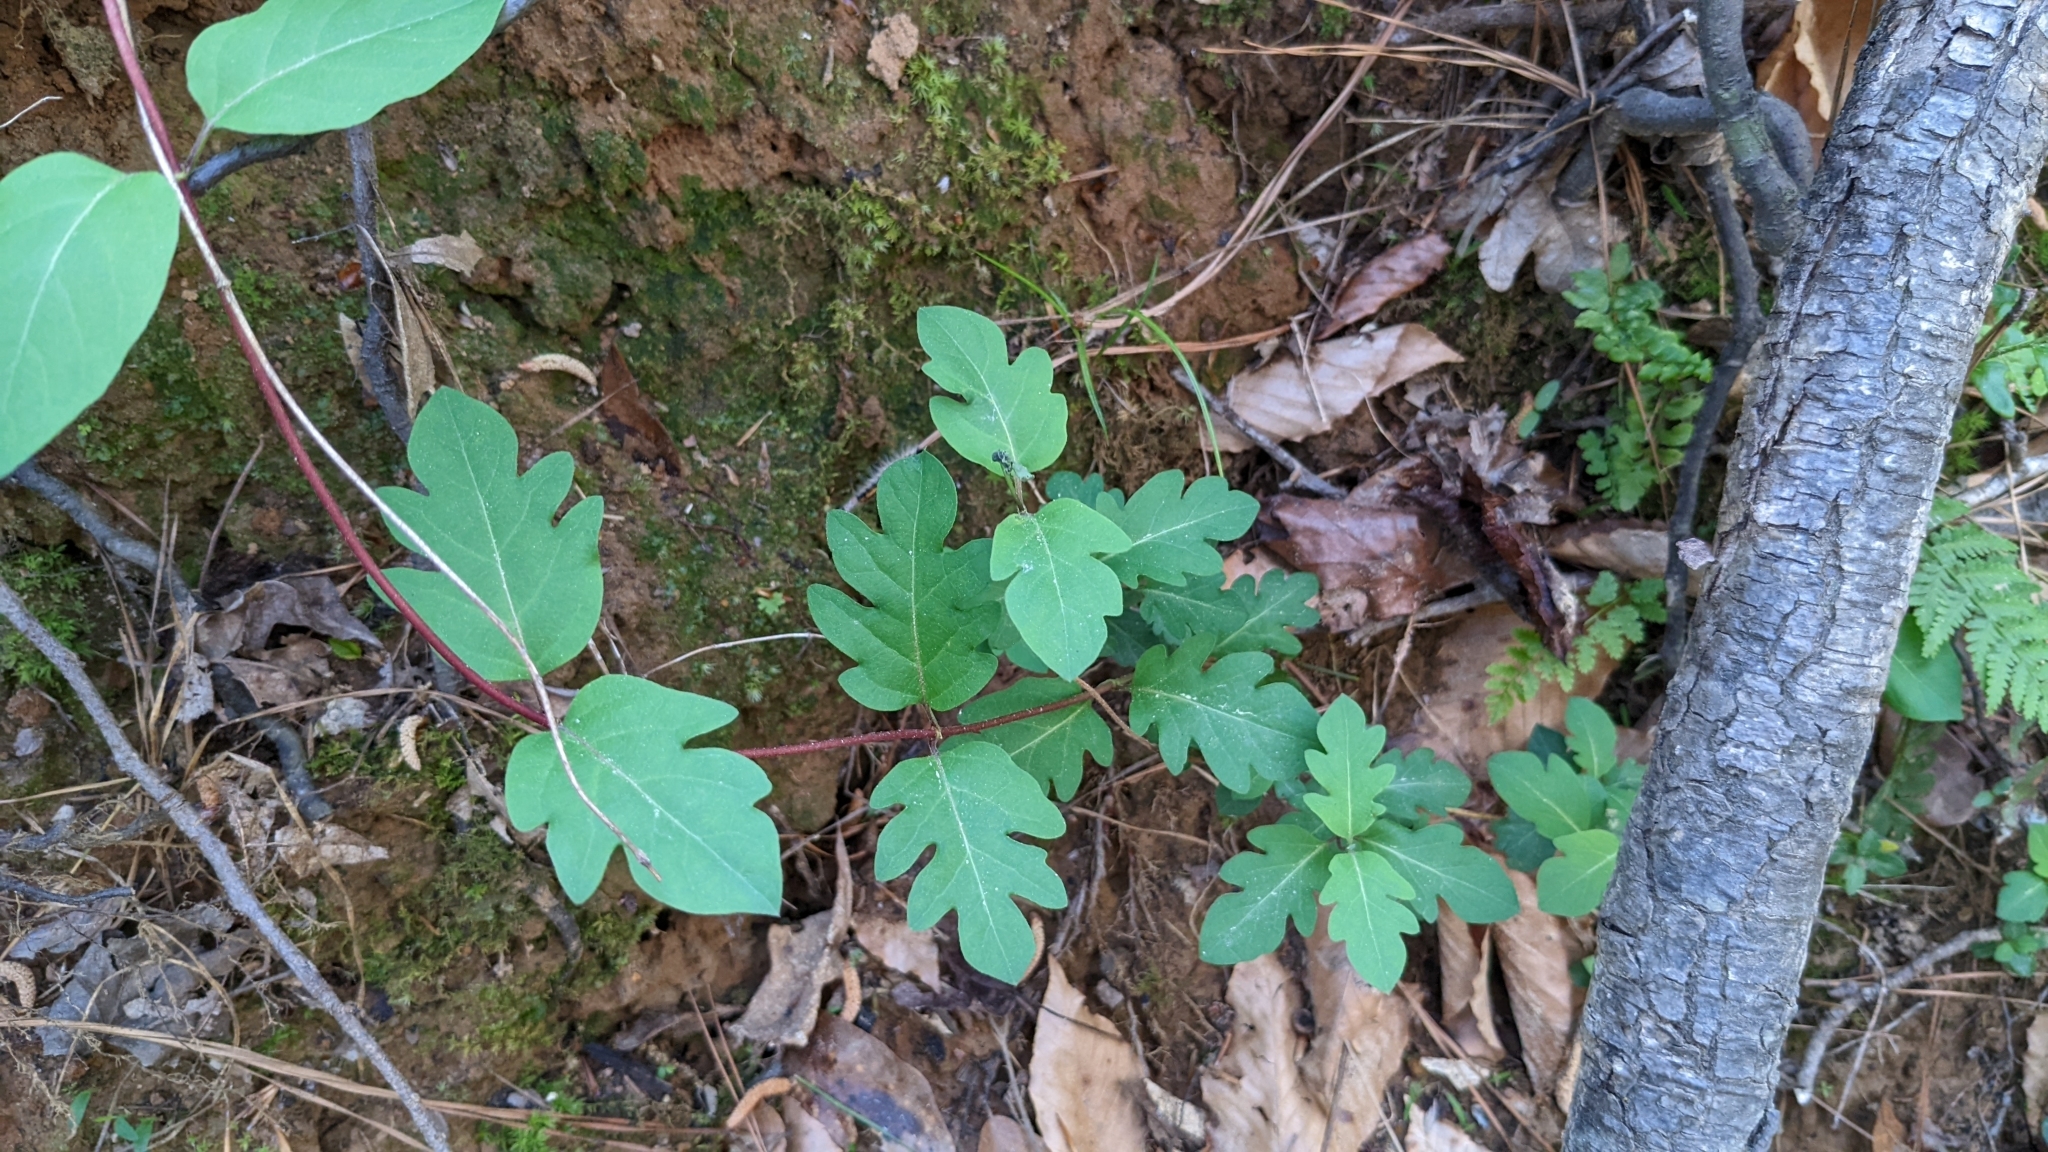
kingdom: Plantae
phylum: Tracheophyta
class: Magnoliopsida
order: Dipsacales
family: Caprifoliaceae
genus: Lonicera
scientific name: Lonicera japonica
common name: Japanese honeysuckle
